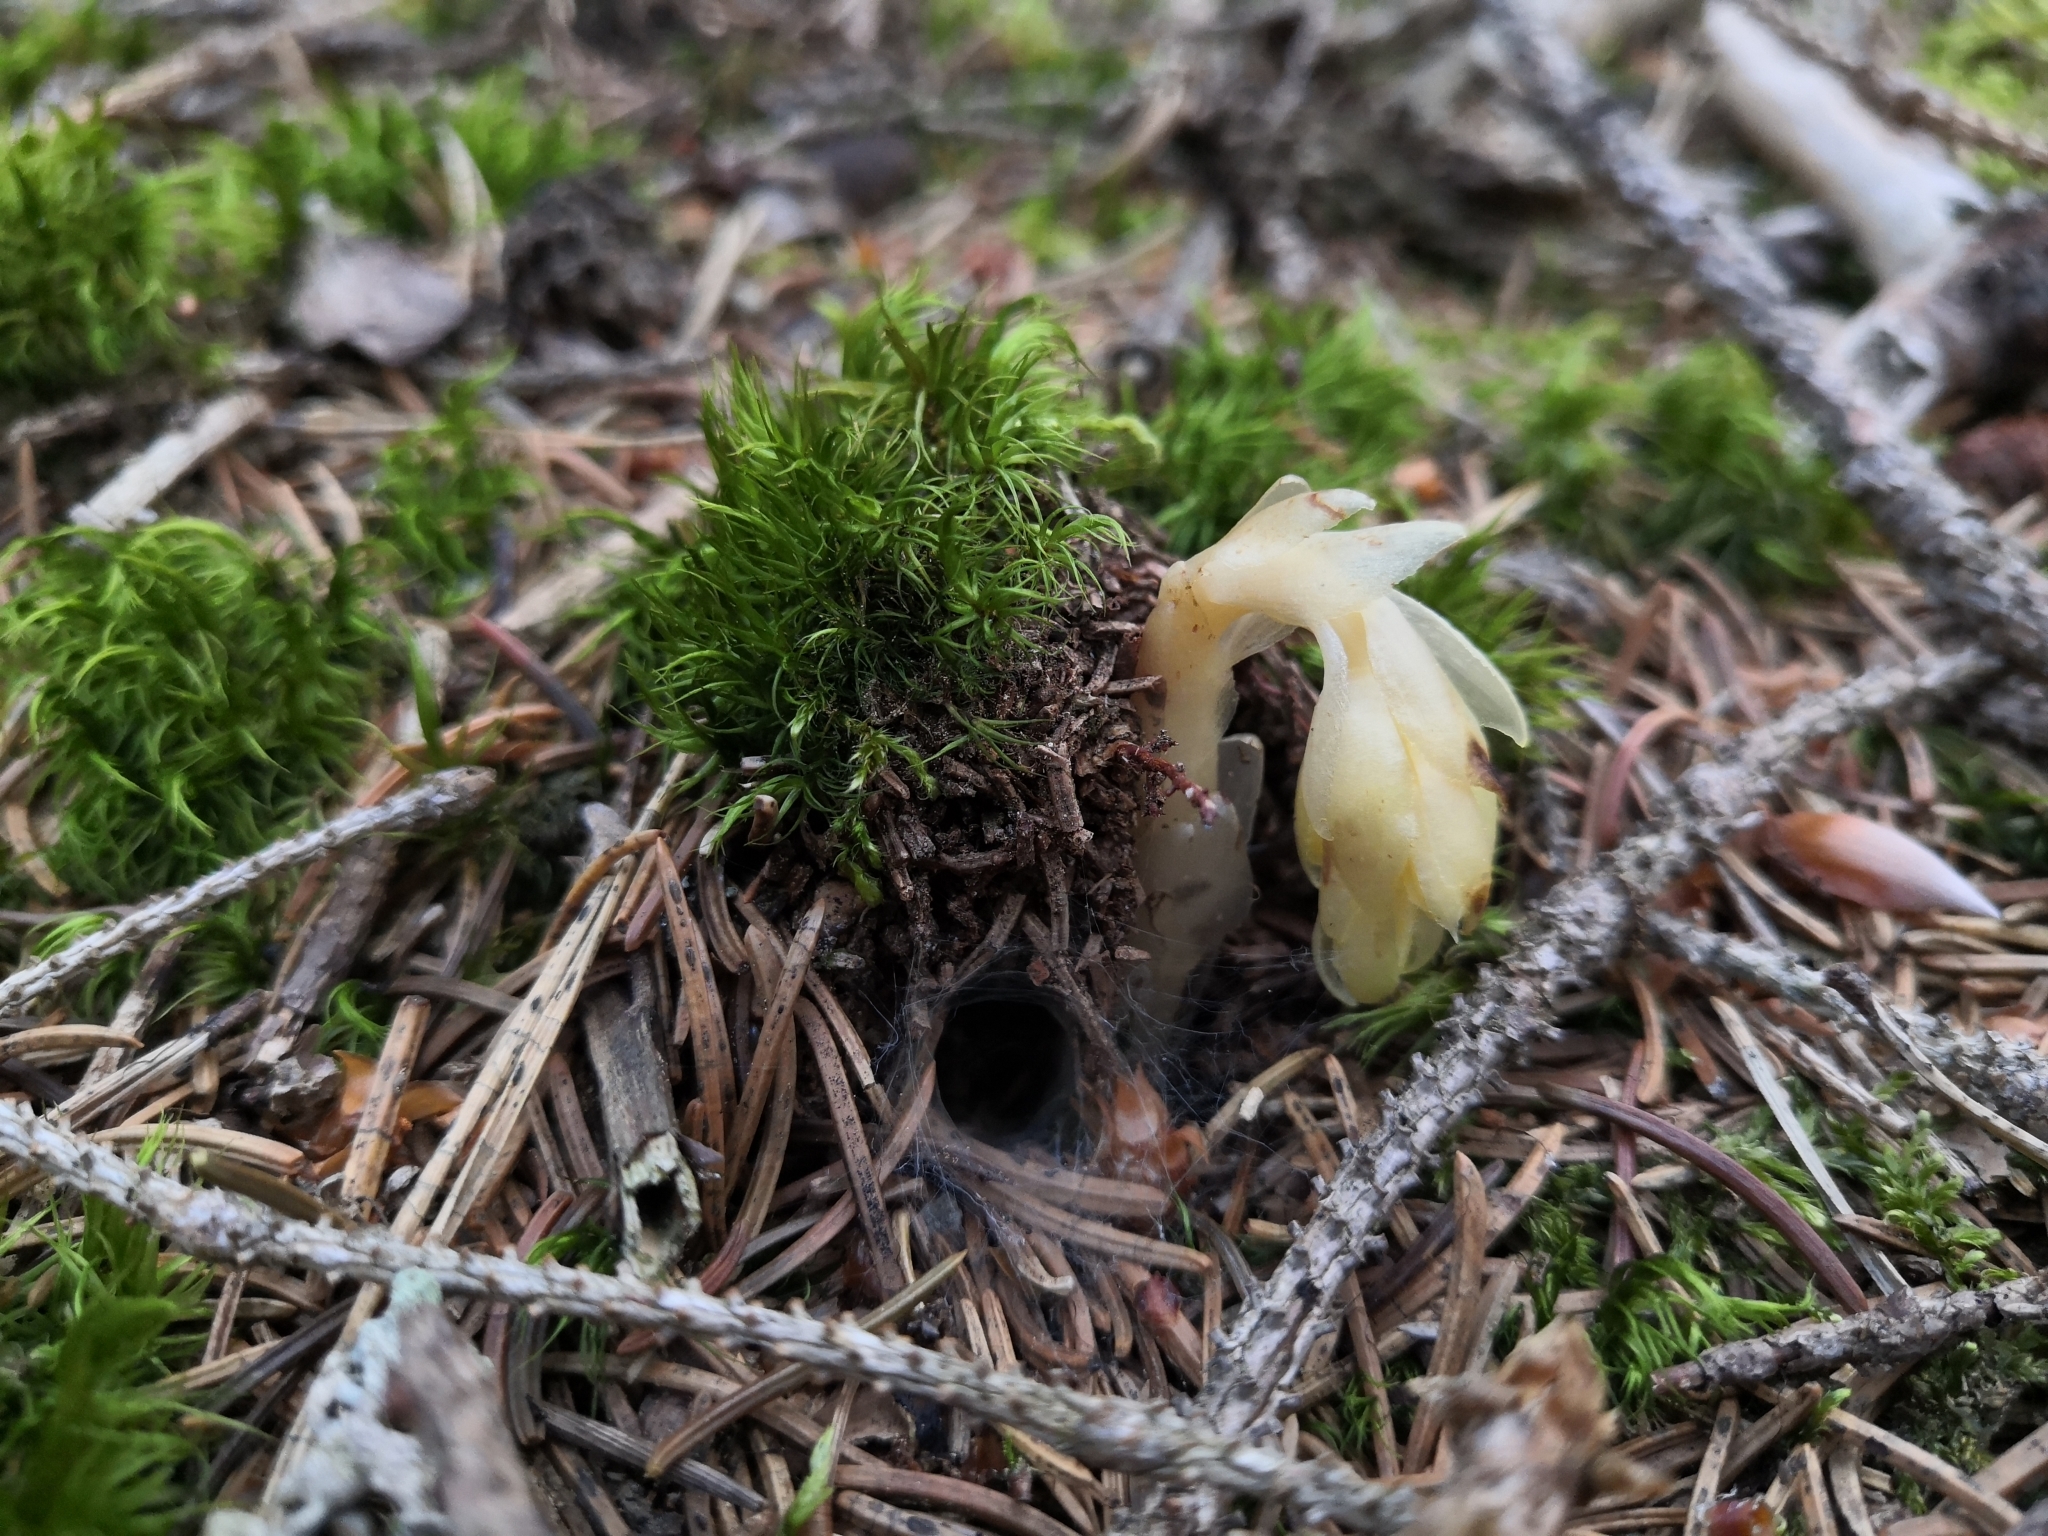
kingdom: Plantae
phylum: Tracheophyta
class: Magnoliopsida
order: Ericales
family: Ericaceae
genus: Hypopitys
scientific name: Hypopitys monotropa
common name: Yellow bird's-nest
